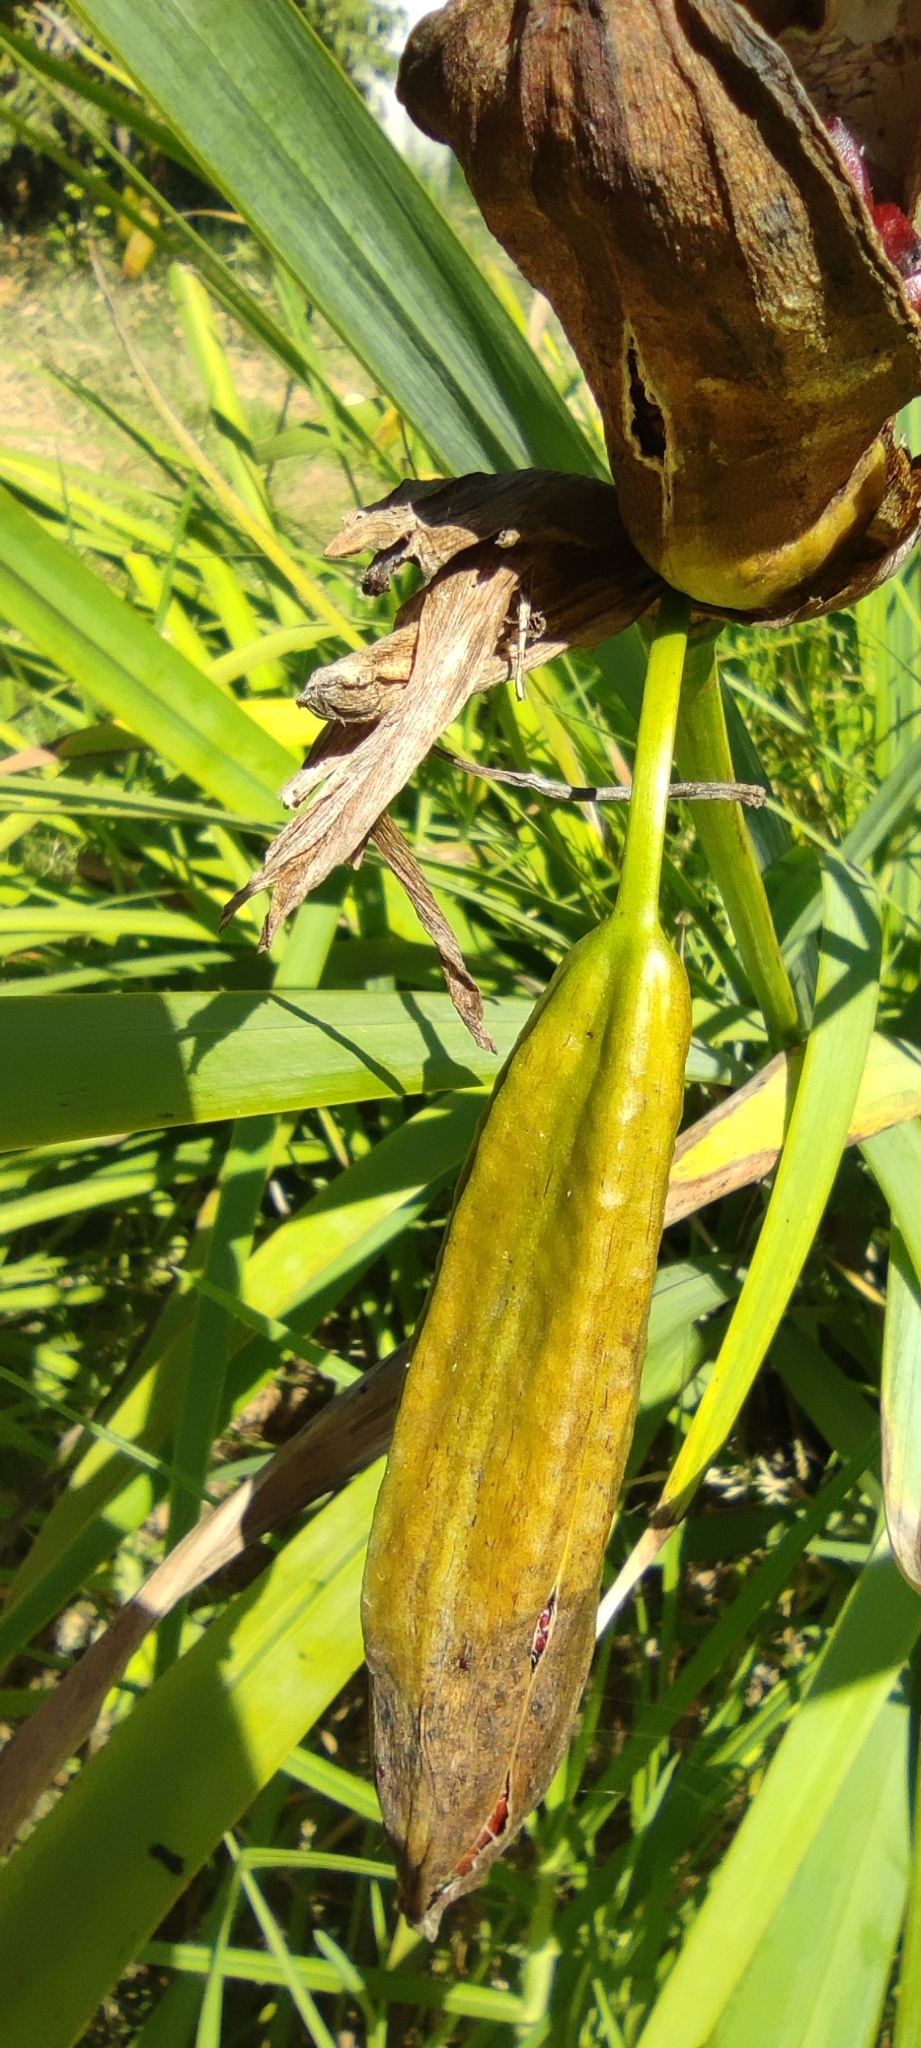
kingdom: Plantae
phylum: Tracheophyta
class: Liliopsida
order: Asparagales
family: Iridaceae
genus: Iris
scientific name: Iris pseudacorus
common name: Yellow flag
